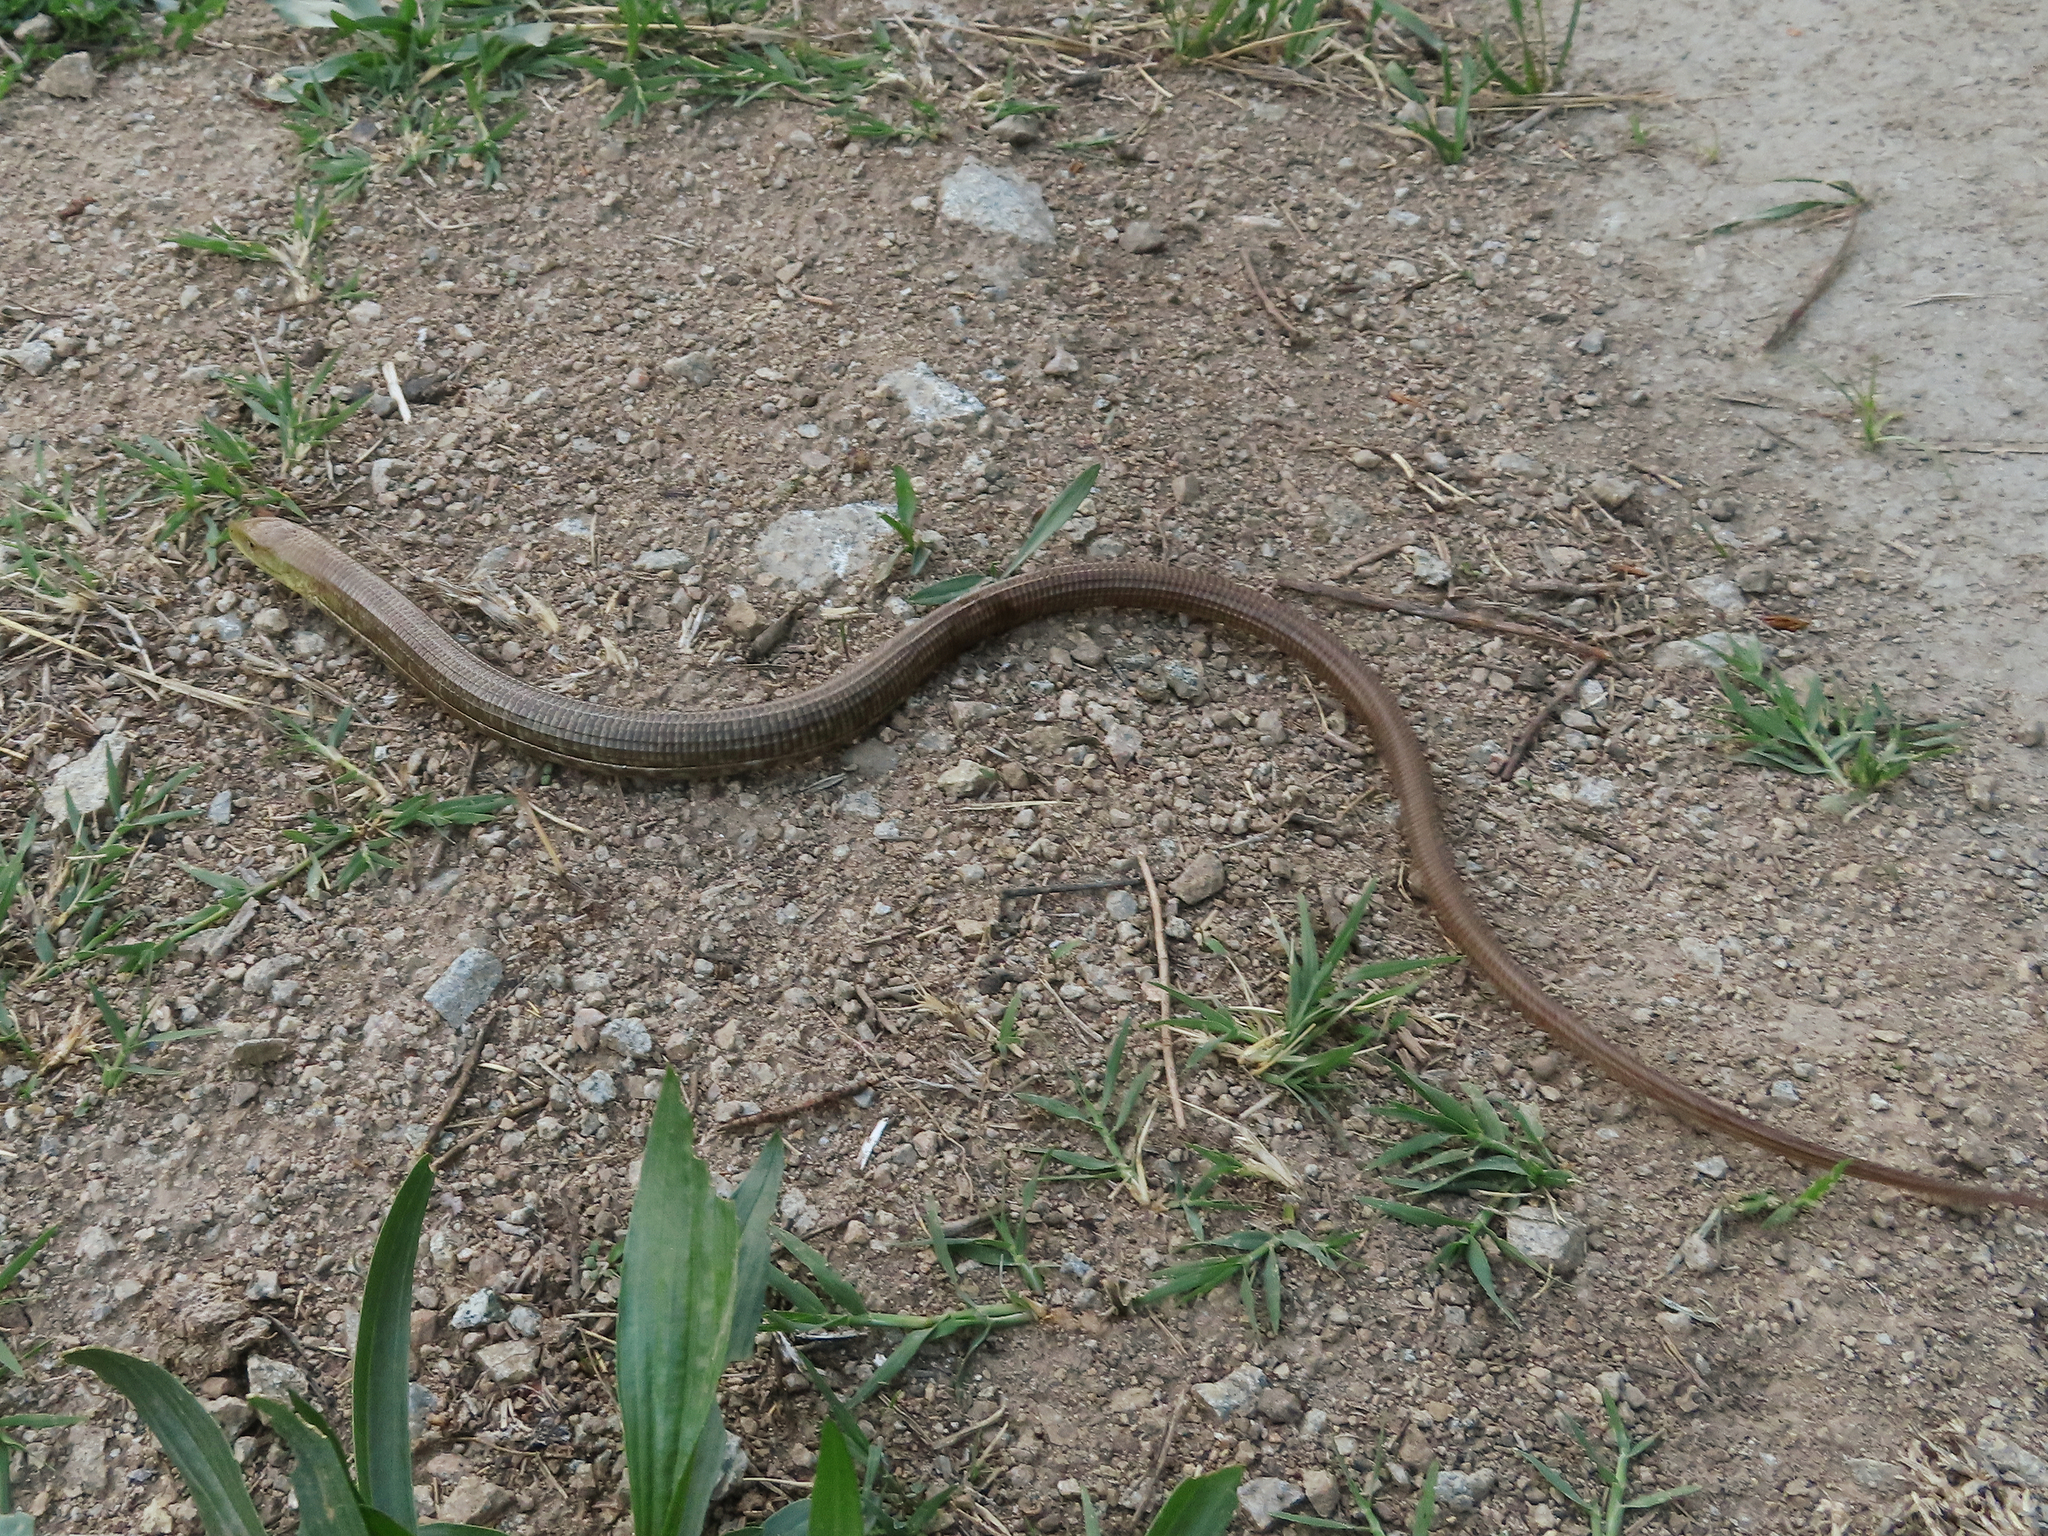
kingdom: Animalia
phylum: Chordata
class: Squamata
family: Anguidae
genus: Pseudopus
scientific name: Pseudopus apodus
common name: European glass lizard
